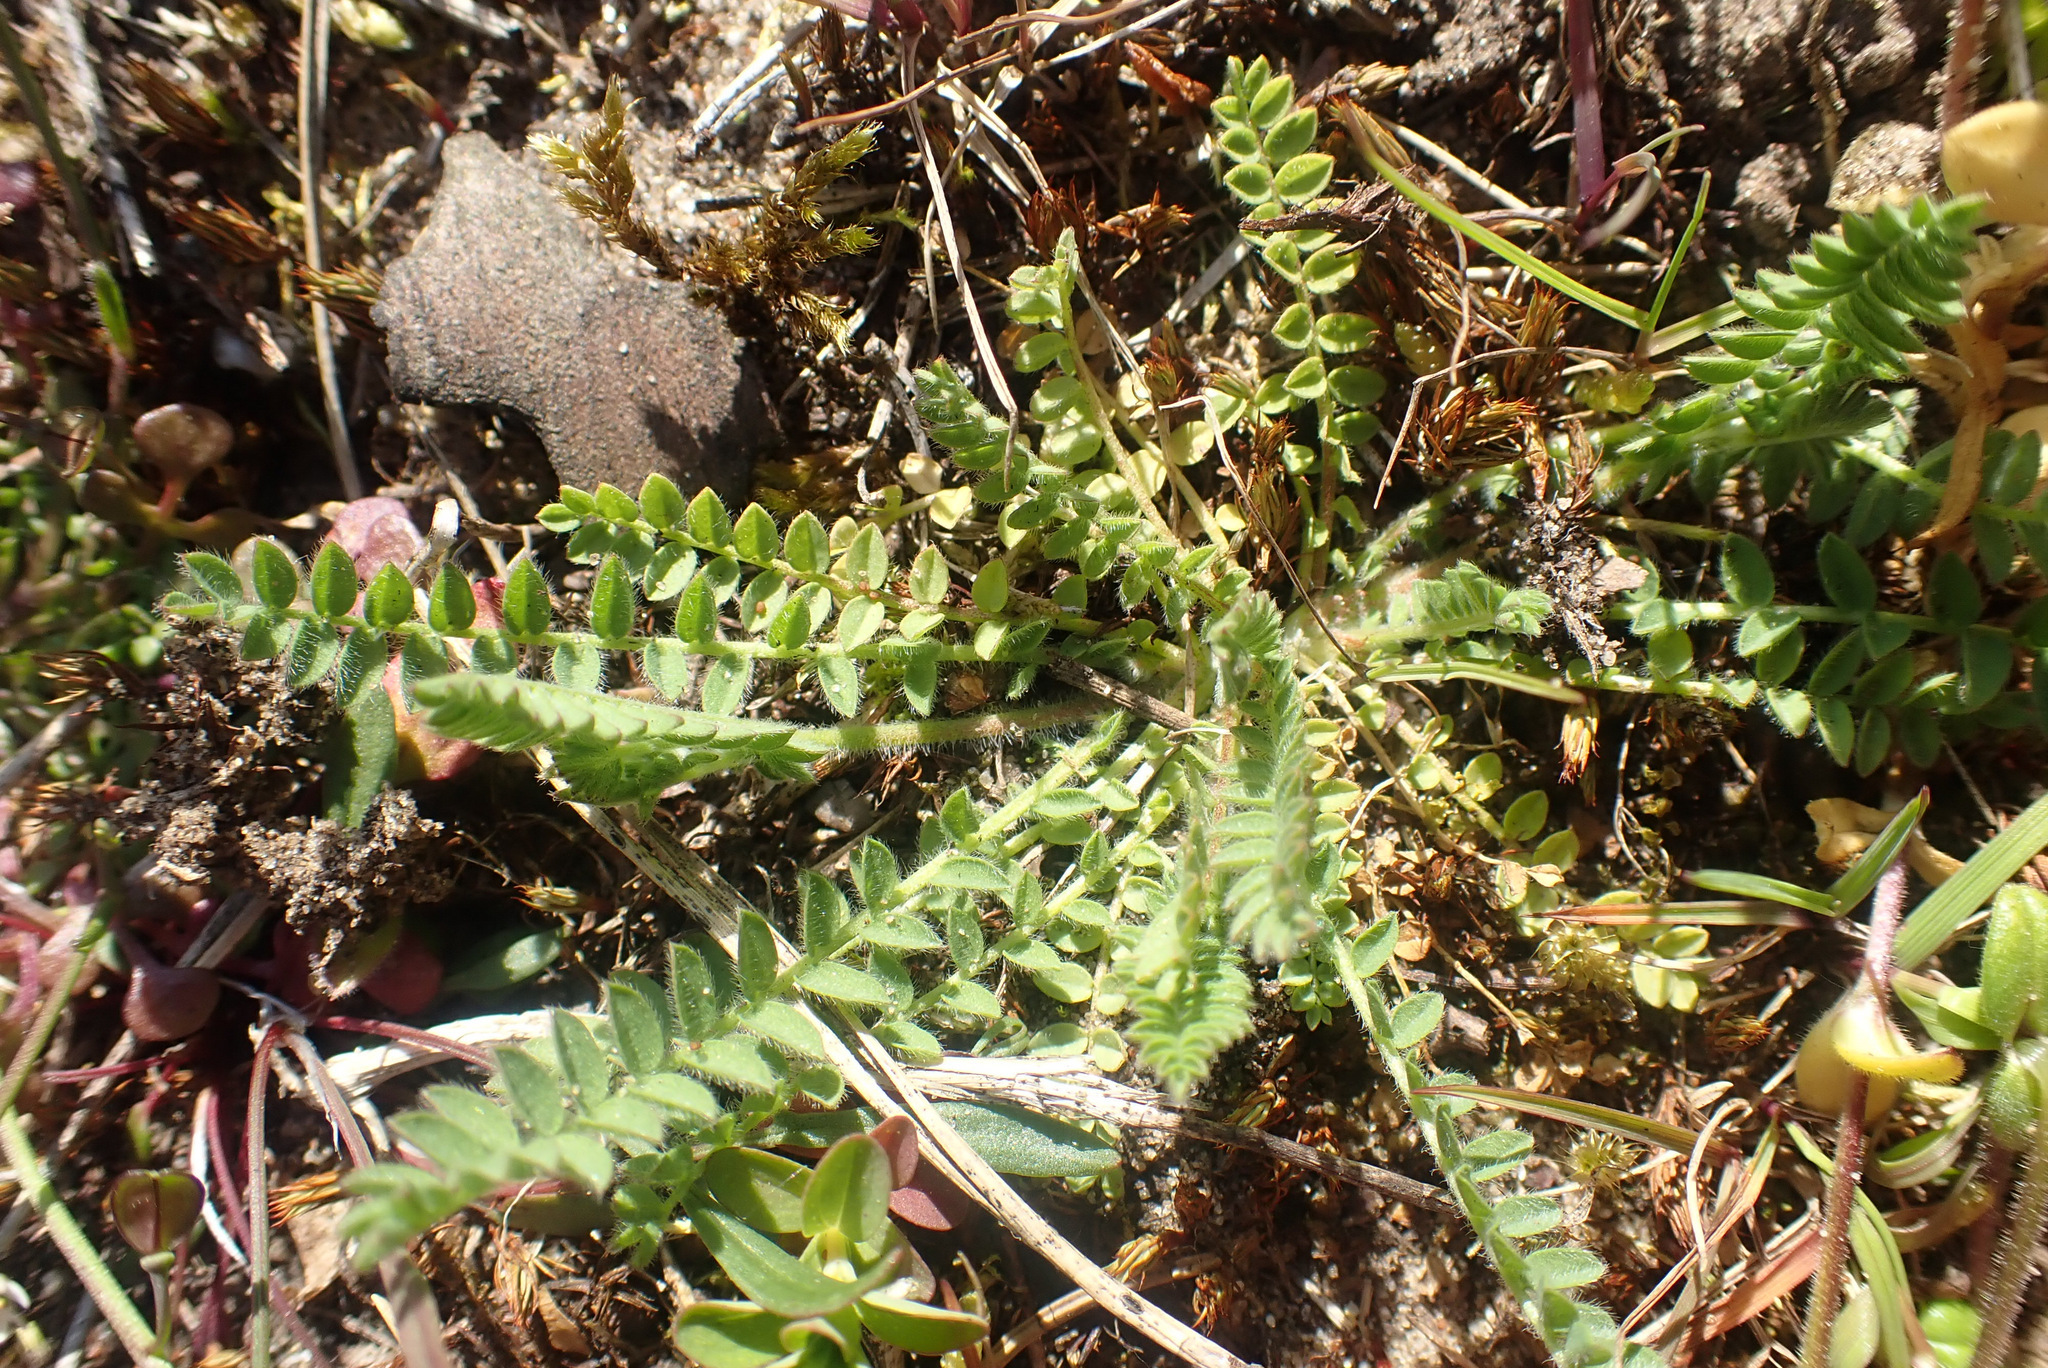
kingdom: Plantae
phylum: Tracheophyta
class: Magnoliopsida
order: Fabales
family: Fabaceae
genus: Ornithopus
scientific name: Ornithopus perpusillus
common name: Bird's-foot
